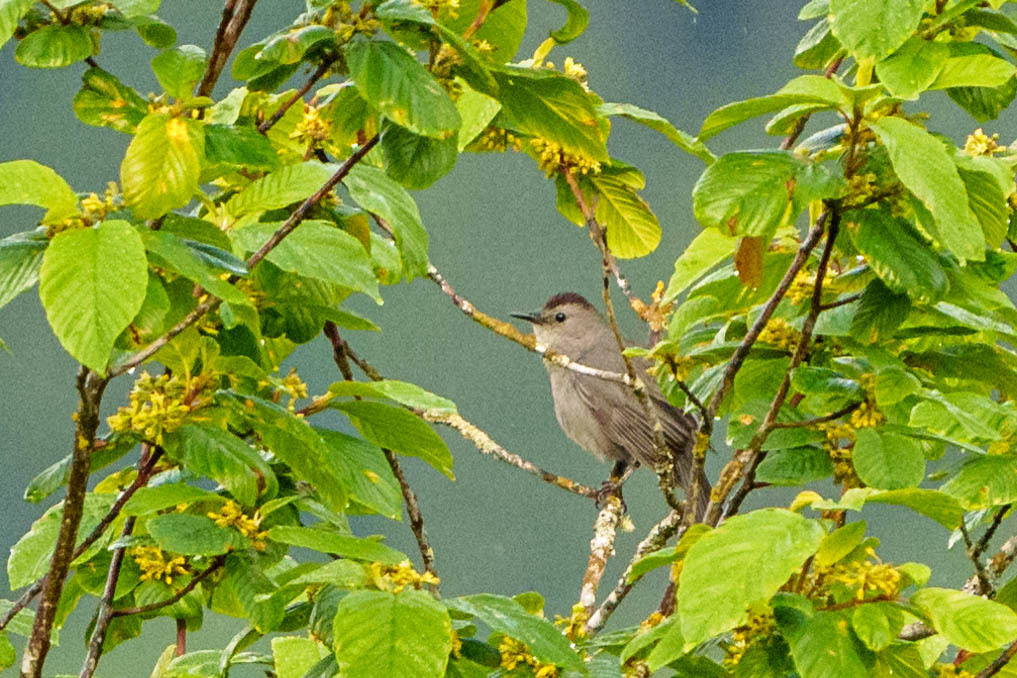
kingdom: Animalia
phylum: Chordata
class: Aves
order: Passeriformes
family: Mimidae
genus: Dumetella
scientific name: Dumetella carolinensis
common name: Gray catbird
